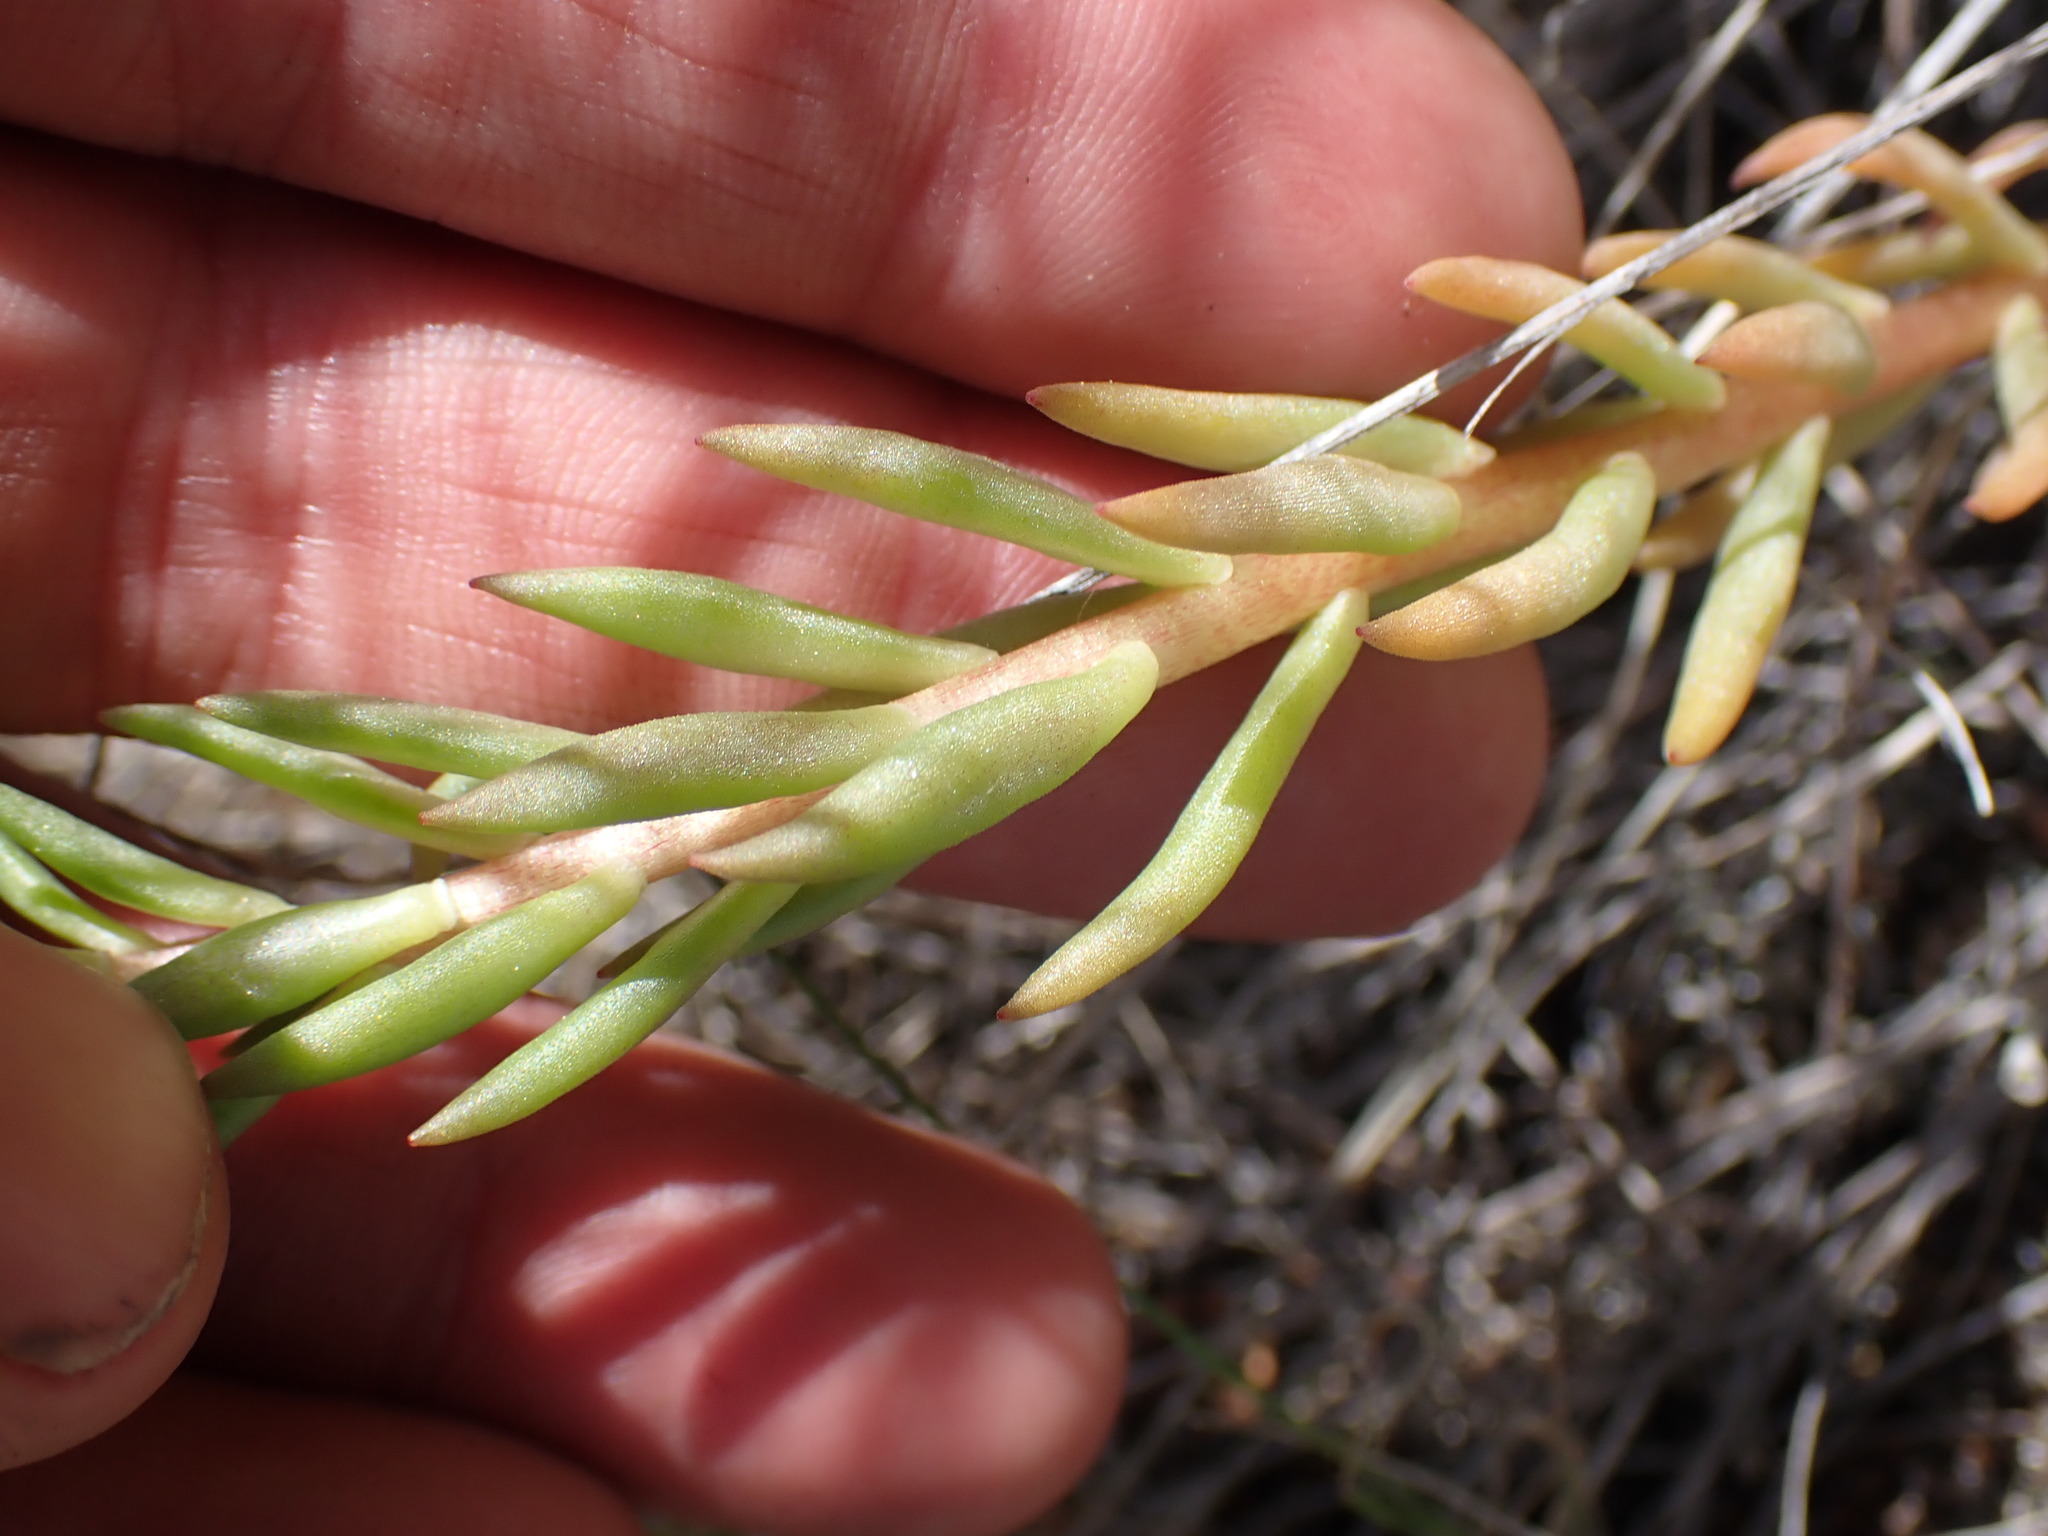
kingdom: Plantae
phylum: Tracheophyta
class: Magnoliopsida
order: Saxifragales
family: Crassulaceae
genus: Sedum
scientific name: Sedum lanceolatum
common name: Common stonecrop
